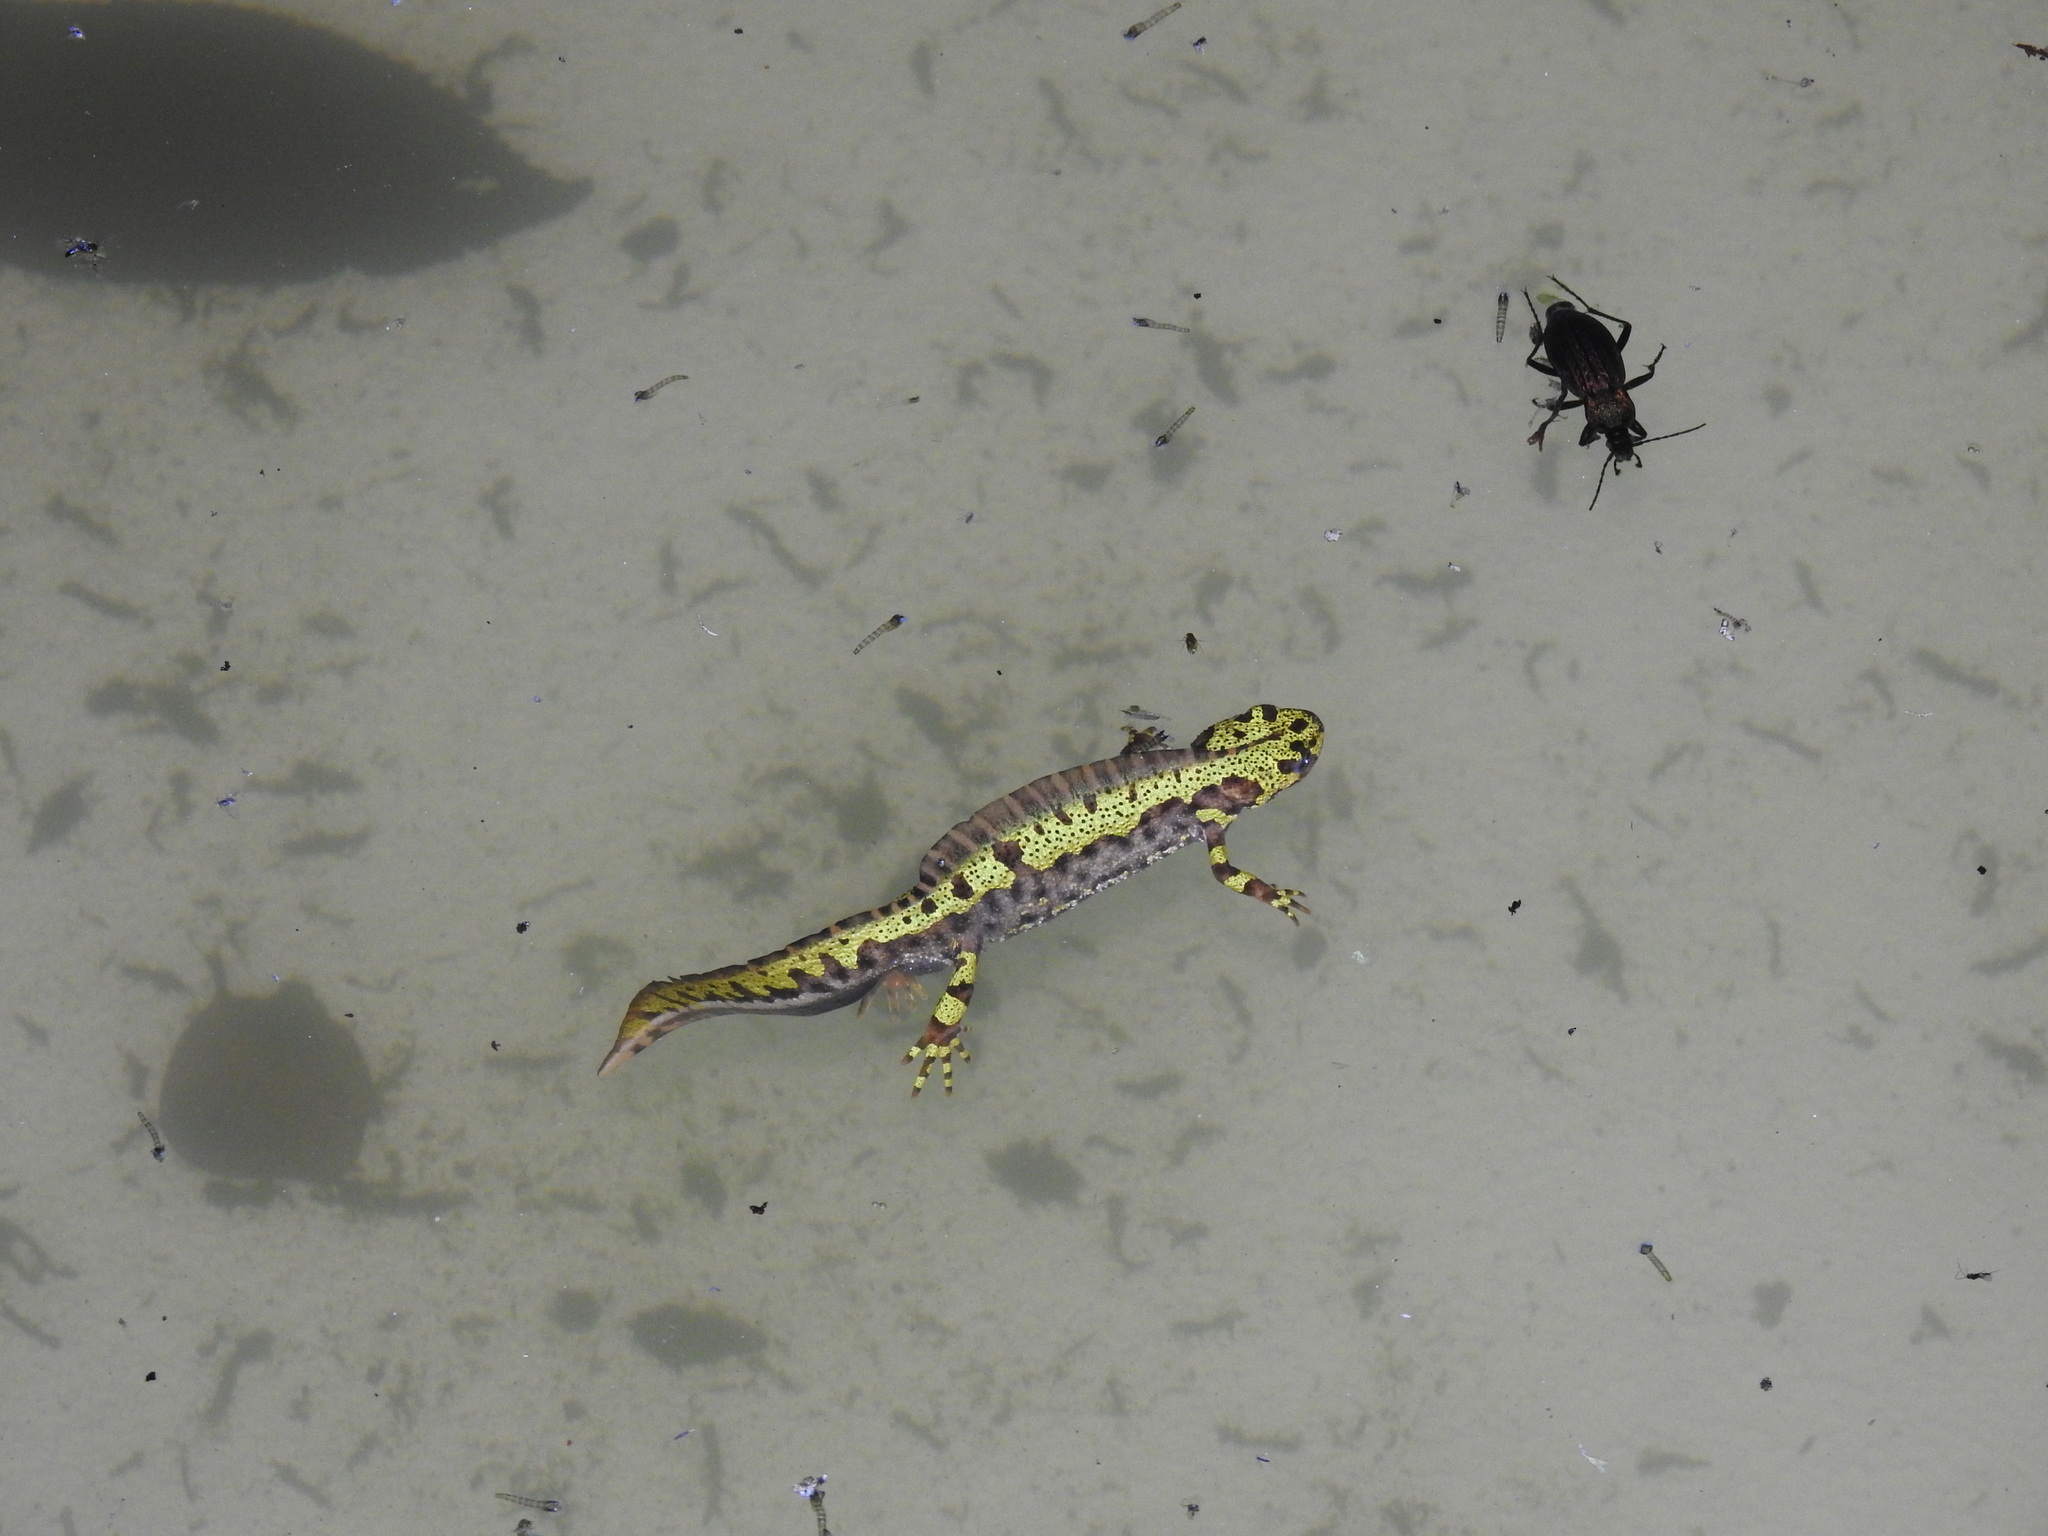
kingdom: Animalia
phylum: Chordata
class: Amphibia
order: Caudata
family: Salamandridae
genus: Triturus
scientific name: Triturus marmoratus
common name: Marbled newt
